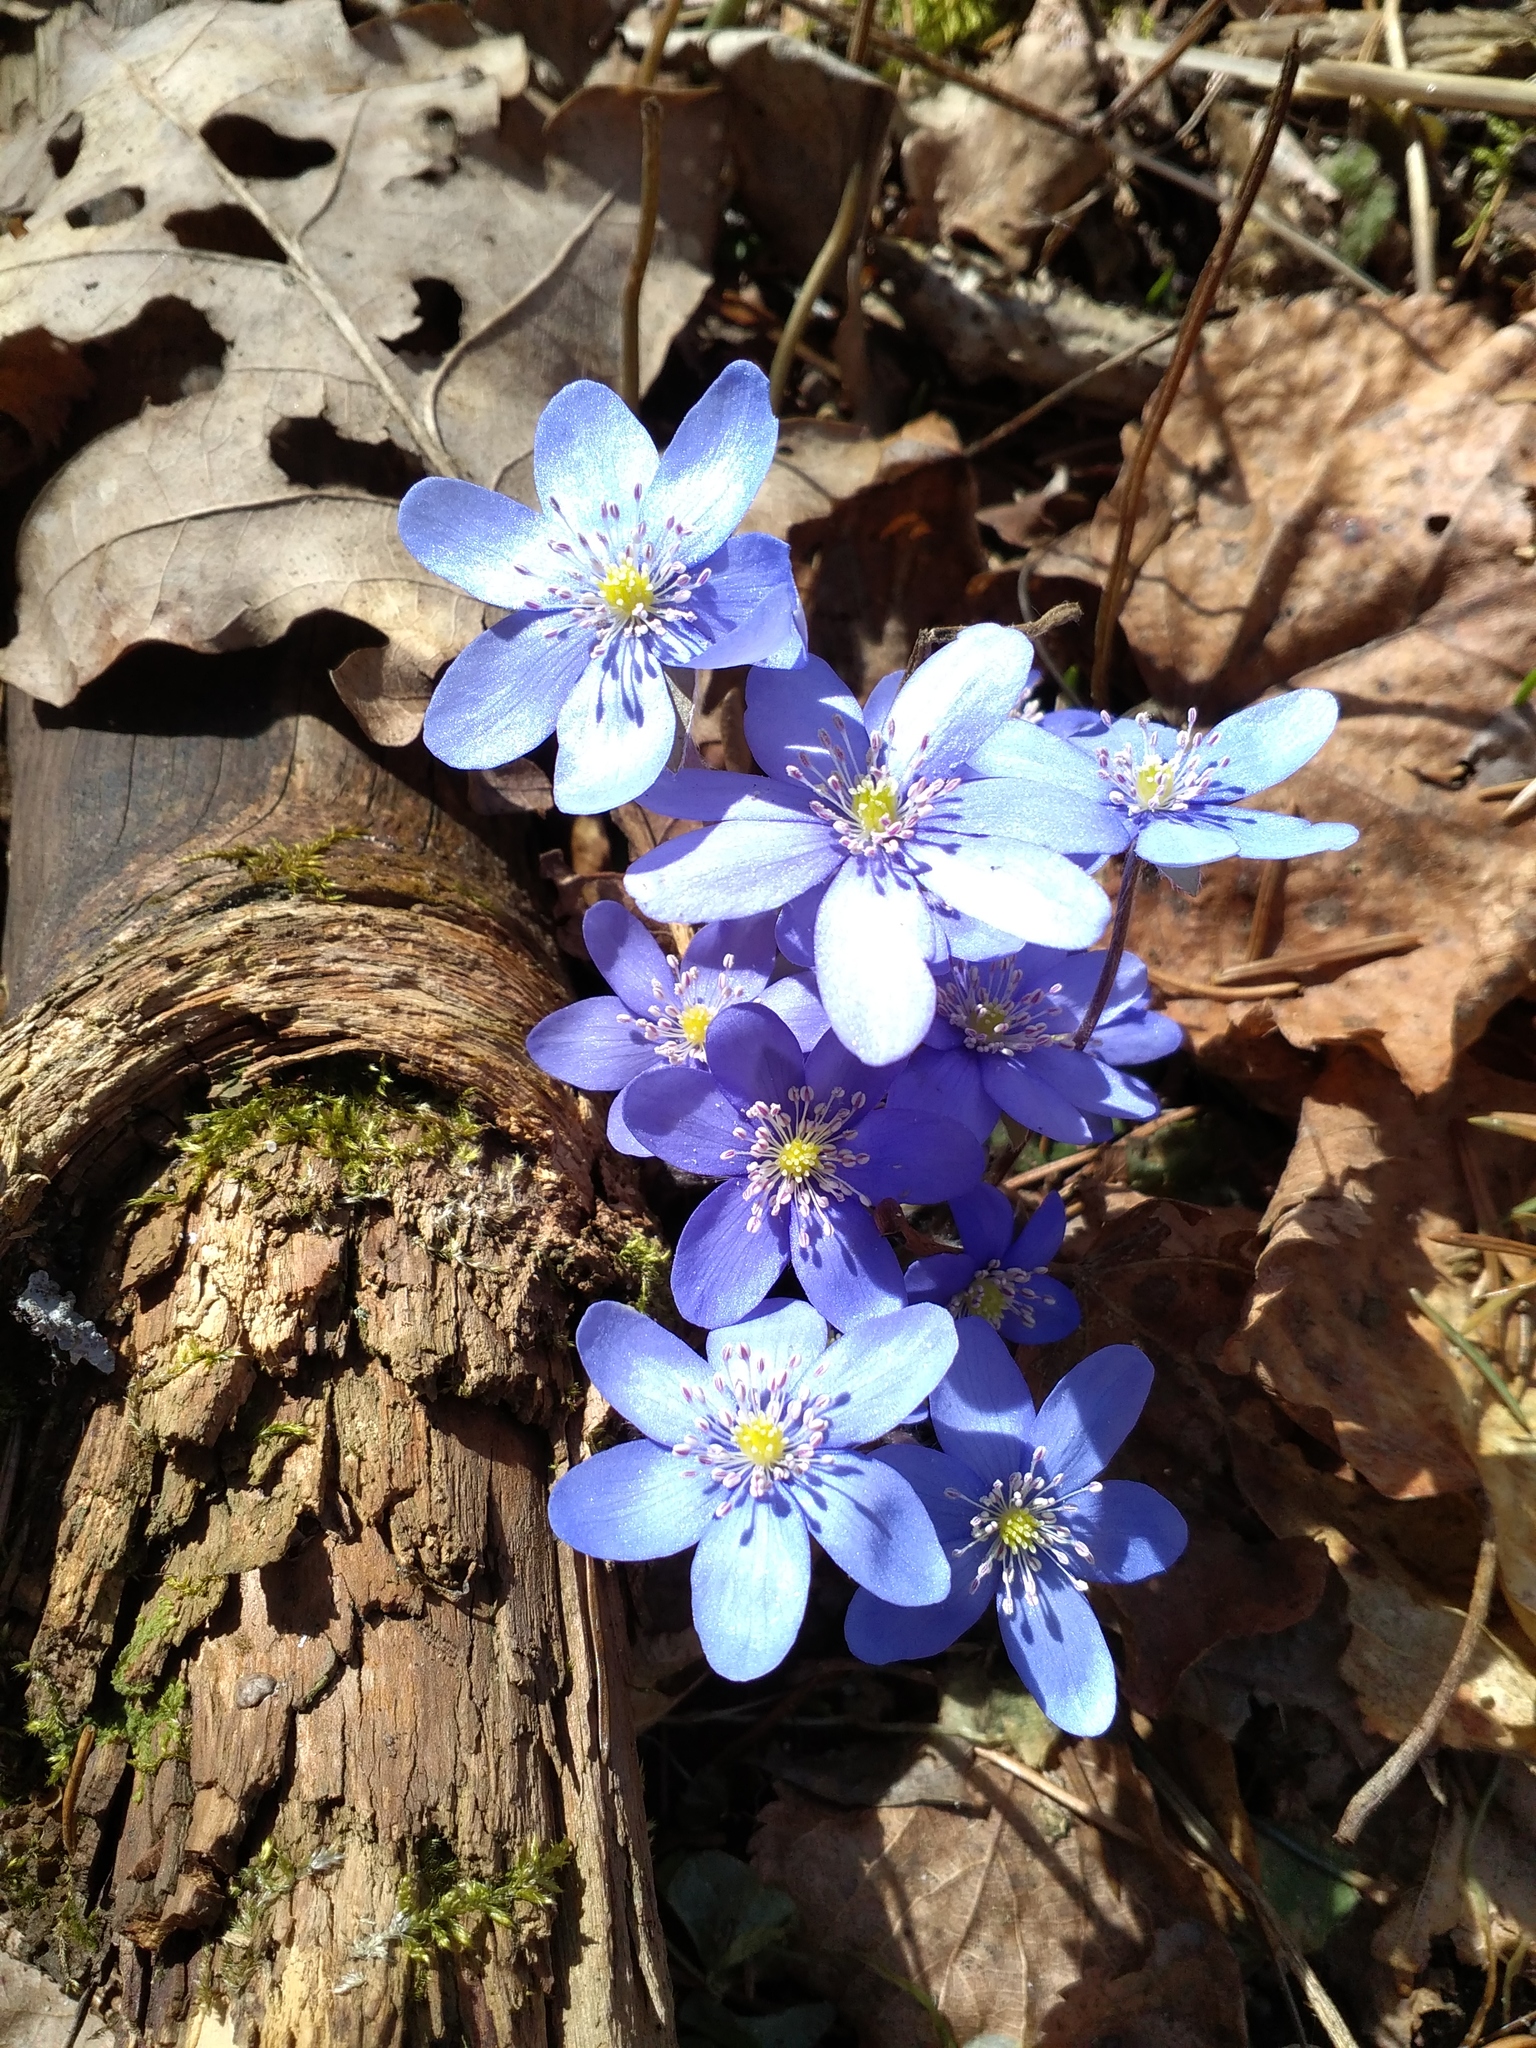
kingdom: Plantae
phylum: Tracheophyta
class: Magnoliopsida
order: Ranunculales
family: Ranunculaceae
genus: Hepatica
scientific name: Hepatica nobilis
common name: Liverleaf
